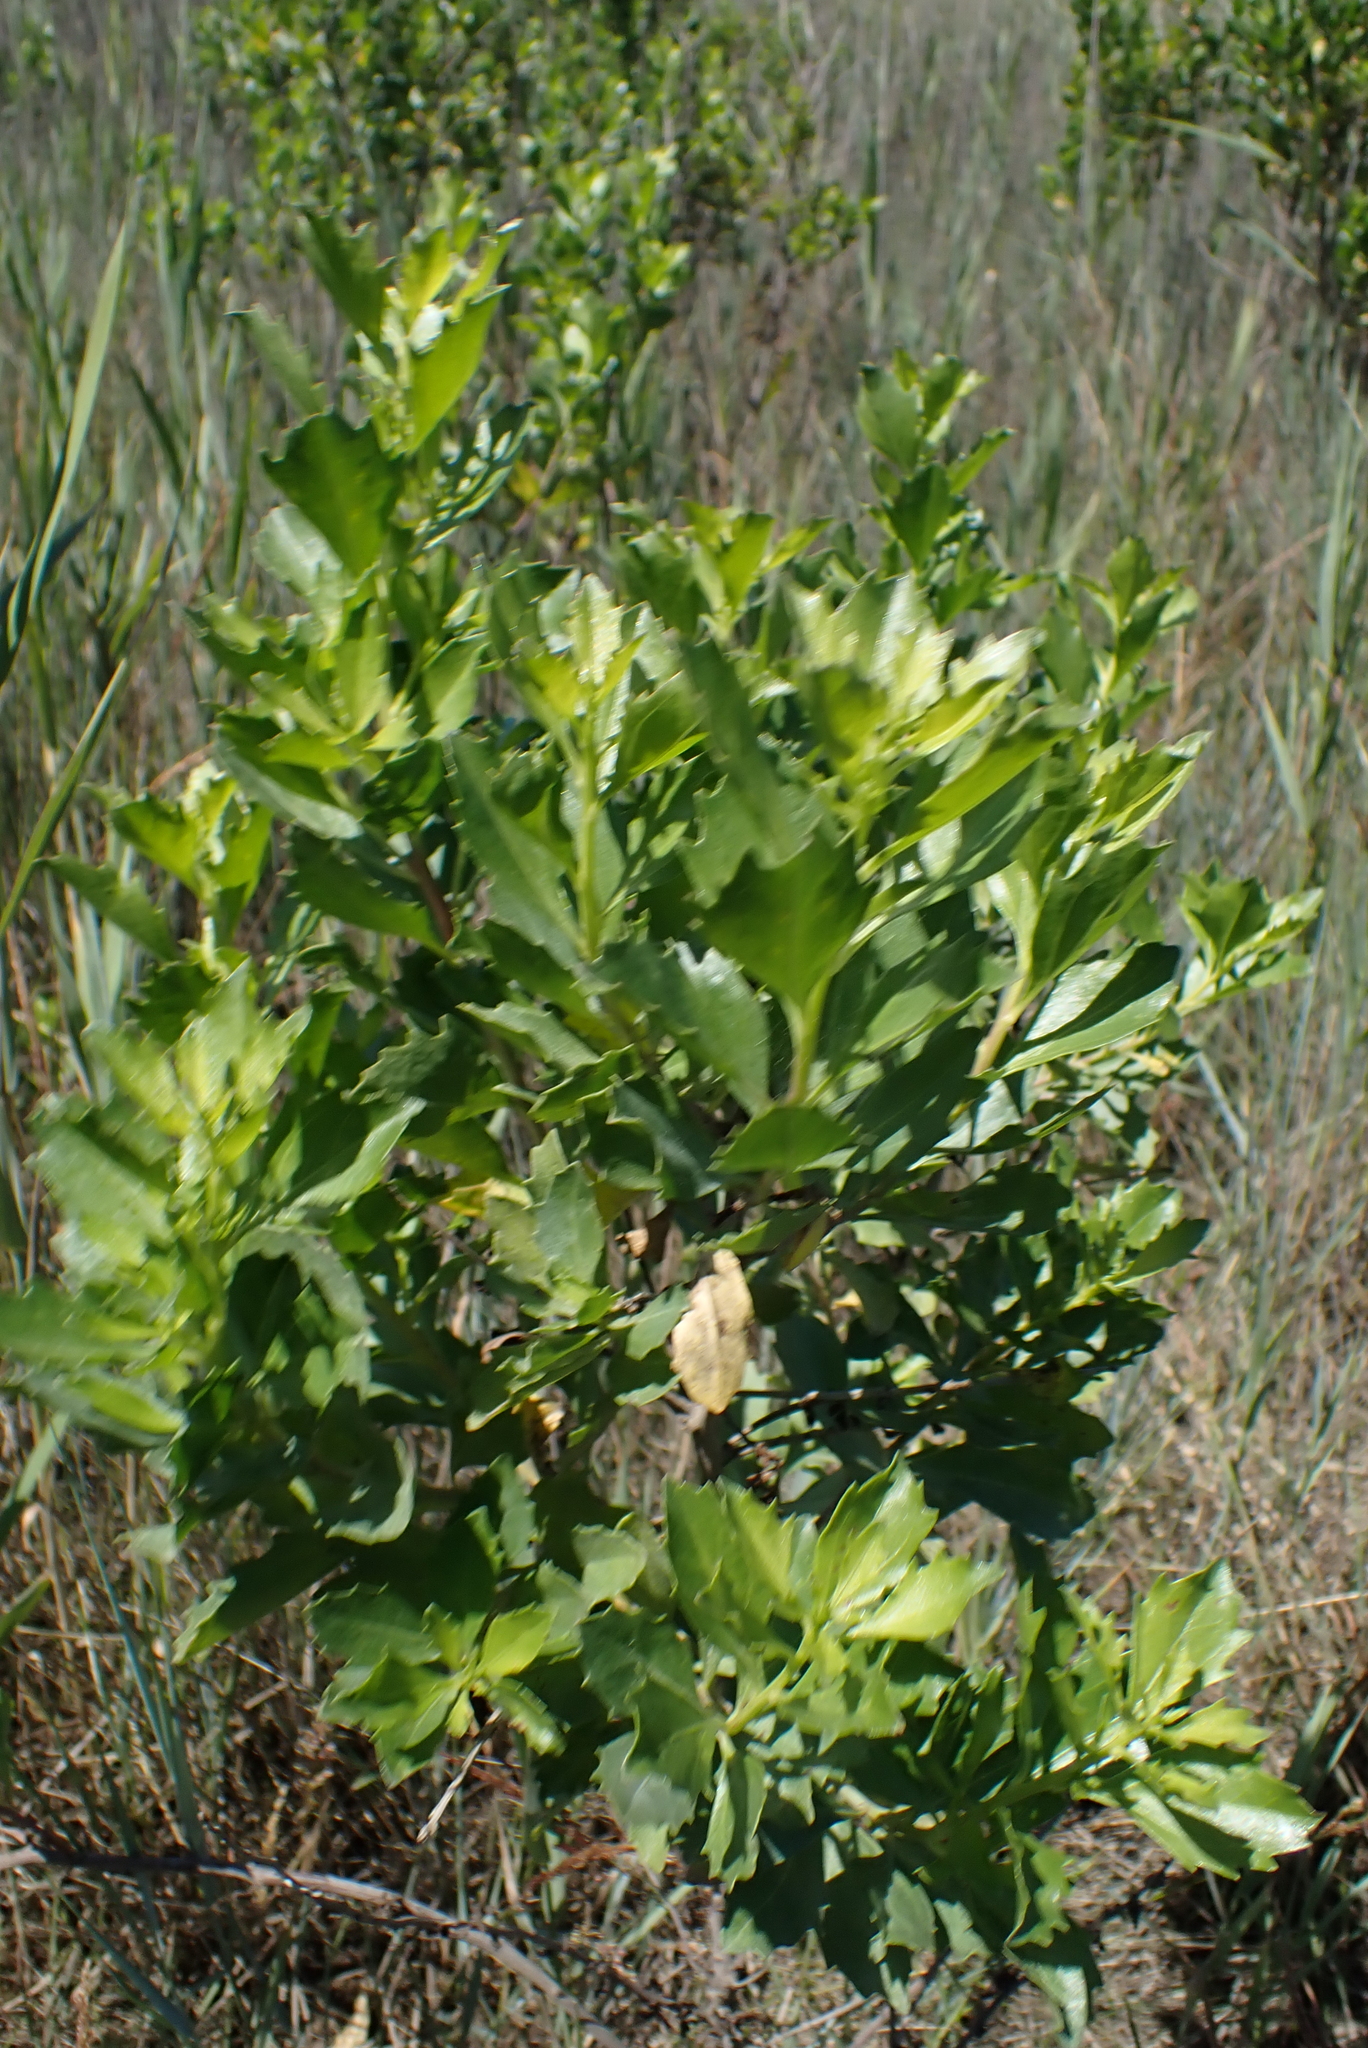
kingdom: Plantae
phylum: Tracheophyta
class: Magnoliopsida
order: Asterales
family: Asteraceae
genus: Baccharis
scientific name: Baccharis halimifolia
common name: Eastern baccharis
